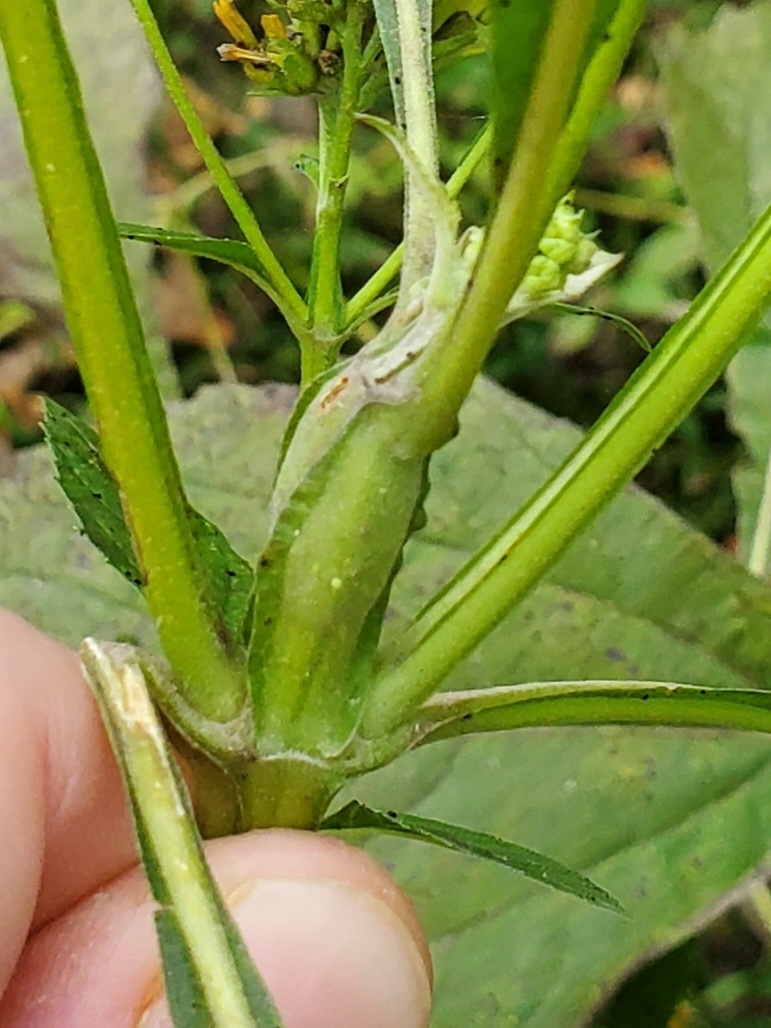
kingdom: Animalia
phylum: Arthropoda
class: Insecta
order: Diptera
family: Cecidomyiidae
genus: Neolasioptera
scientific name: Neolasioptera verbesinae
